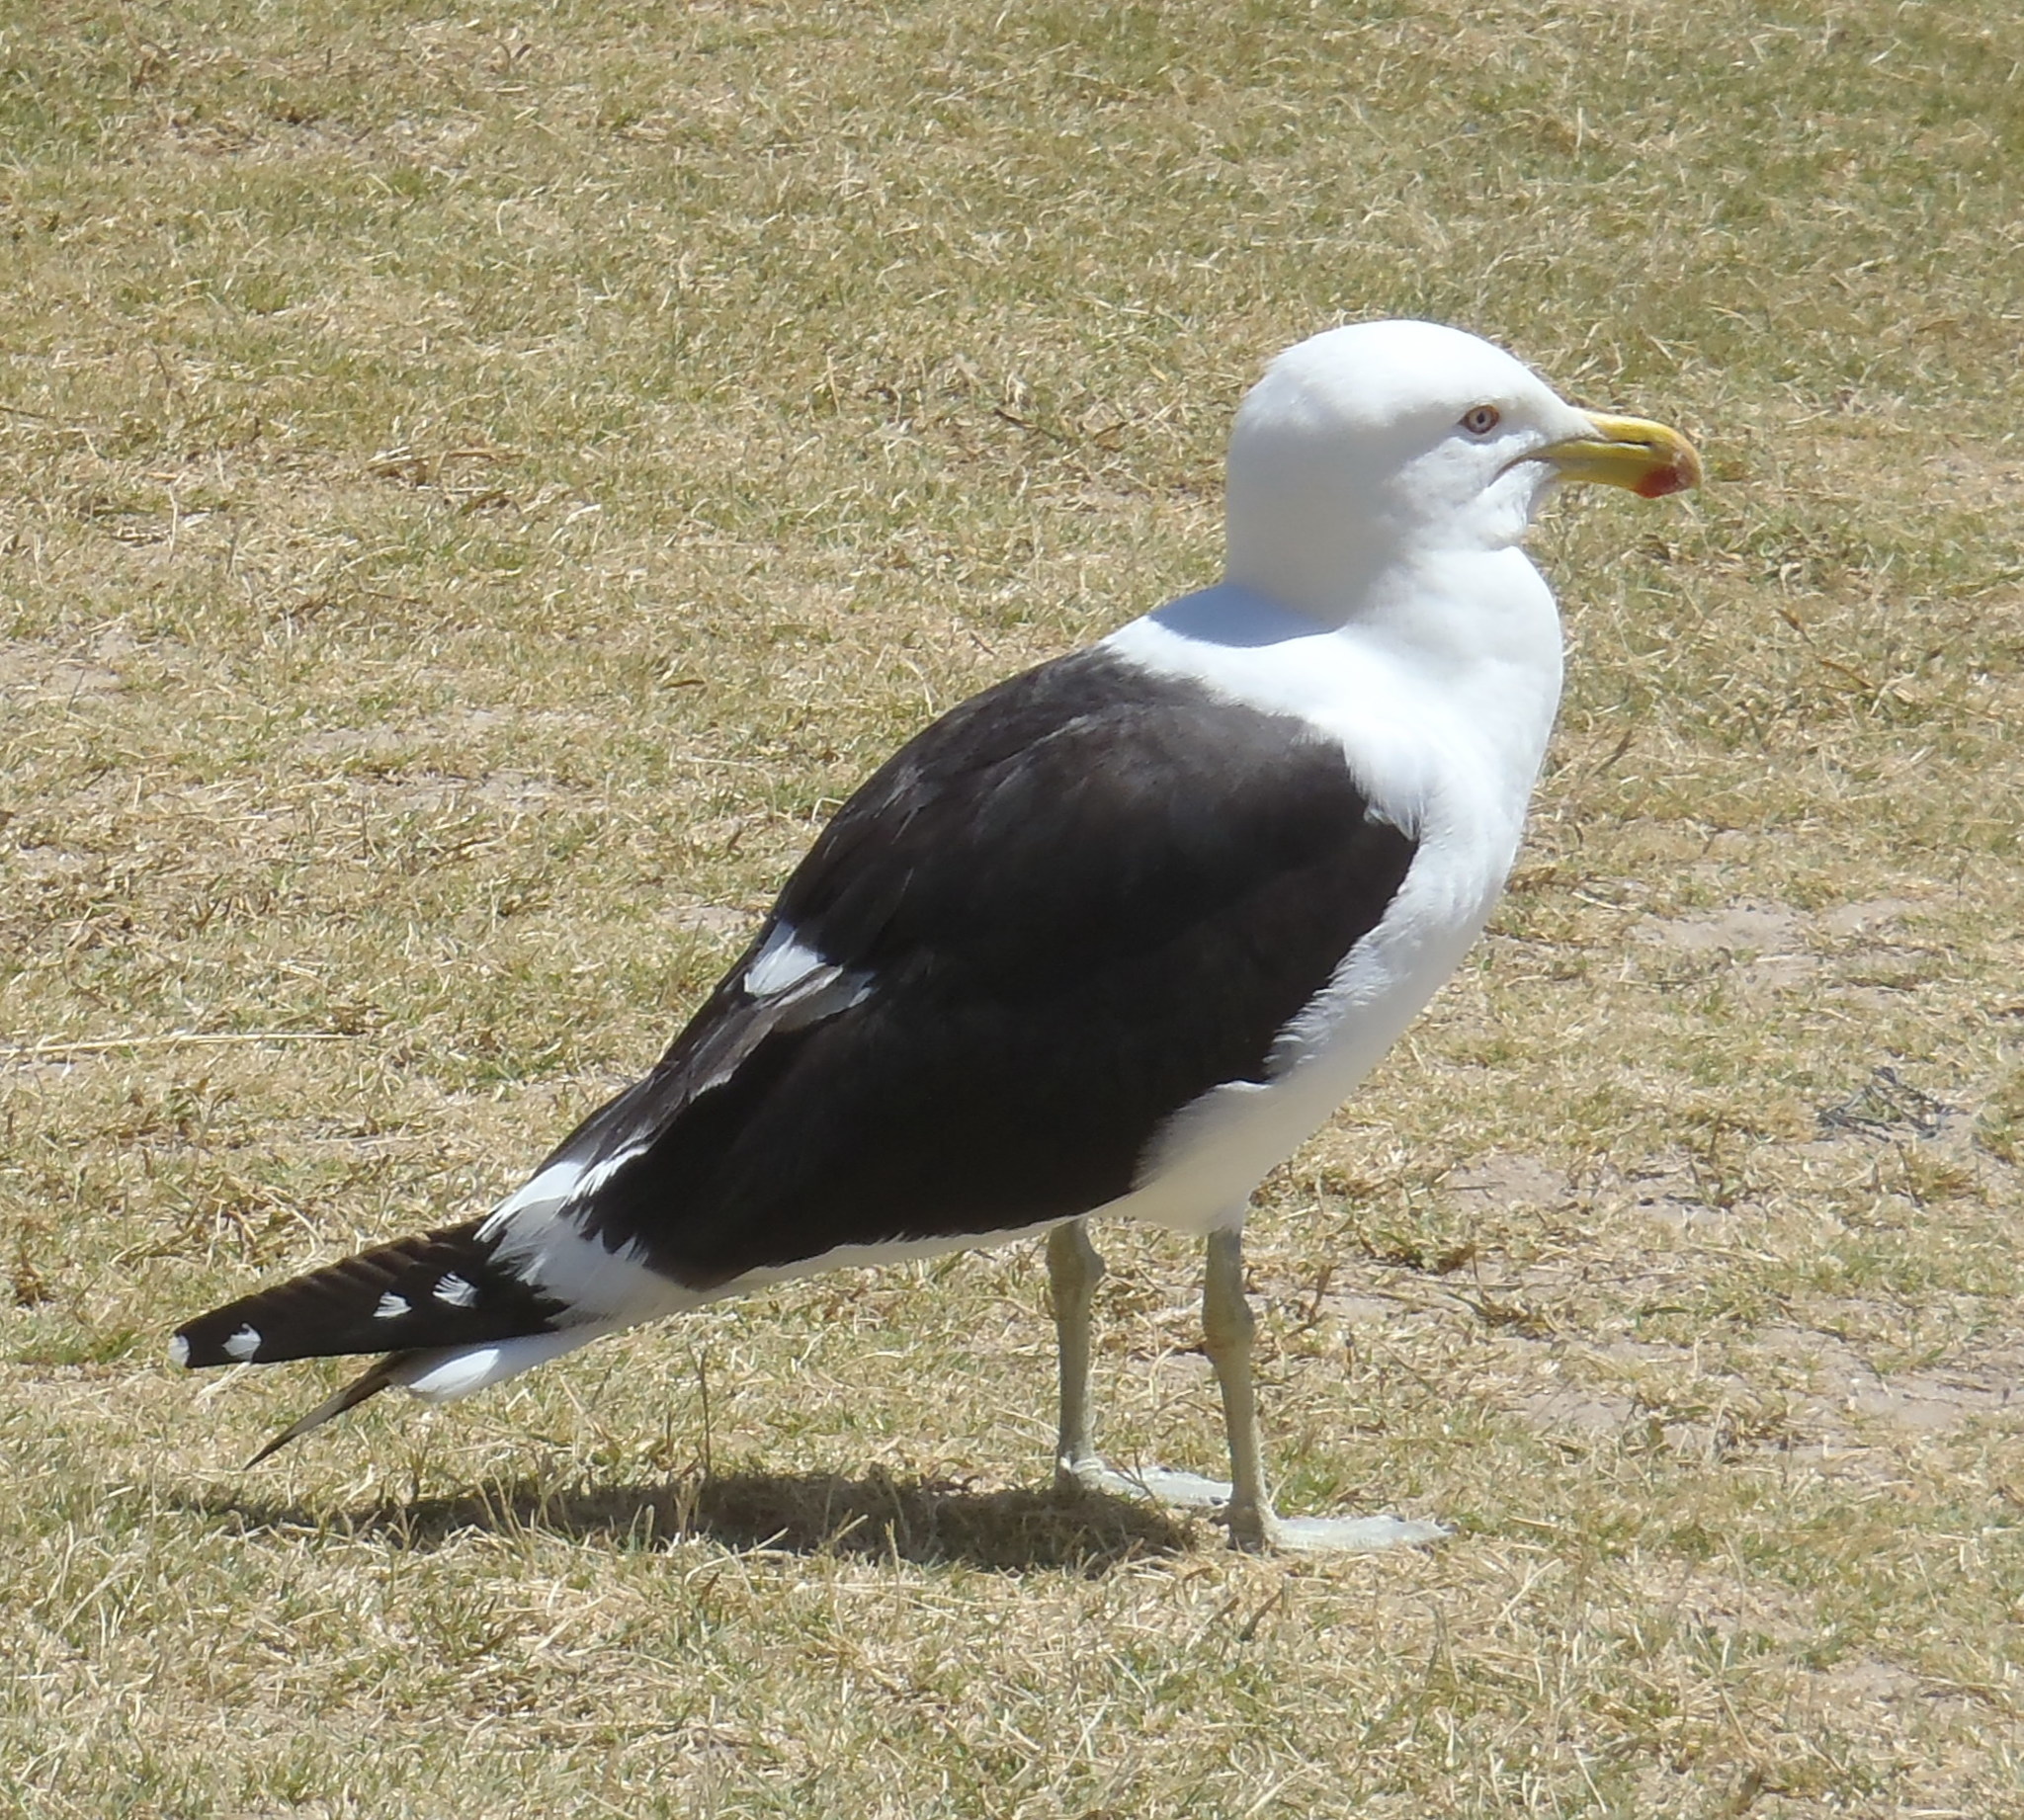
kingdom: Animalia
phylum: Chordata
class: Aves
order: Charadriiformes
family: Laridae
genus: Larus
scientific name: Larus dominicanus
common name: Kelp gull
